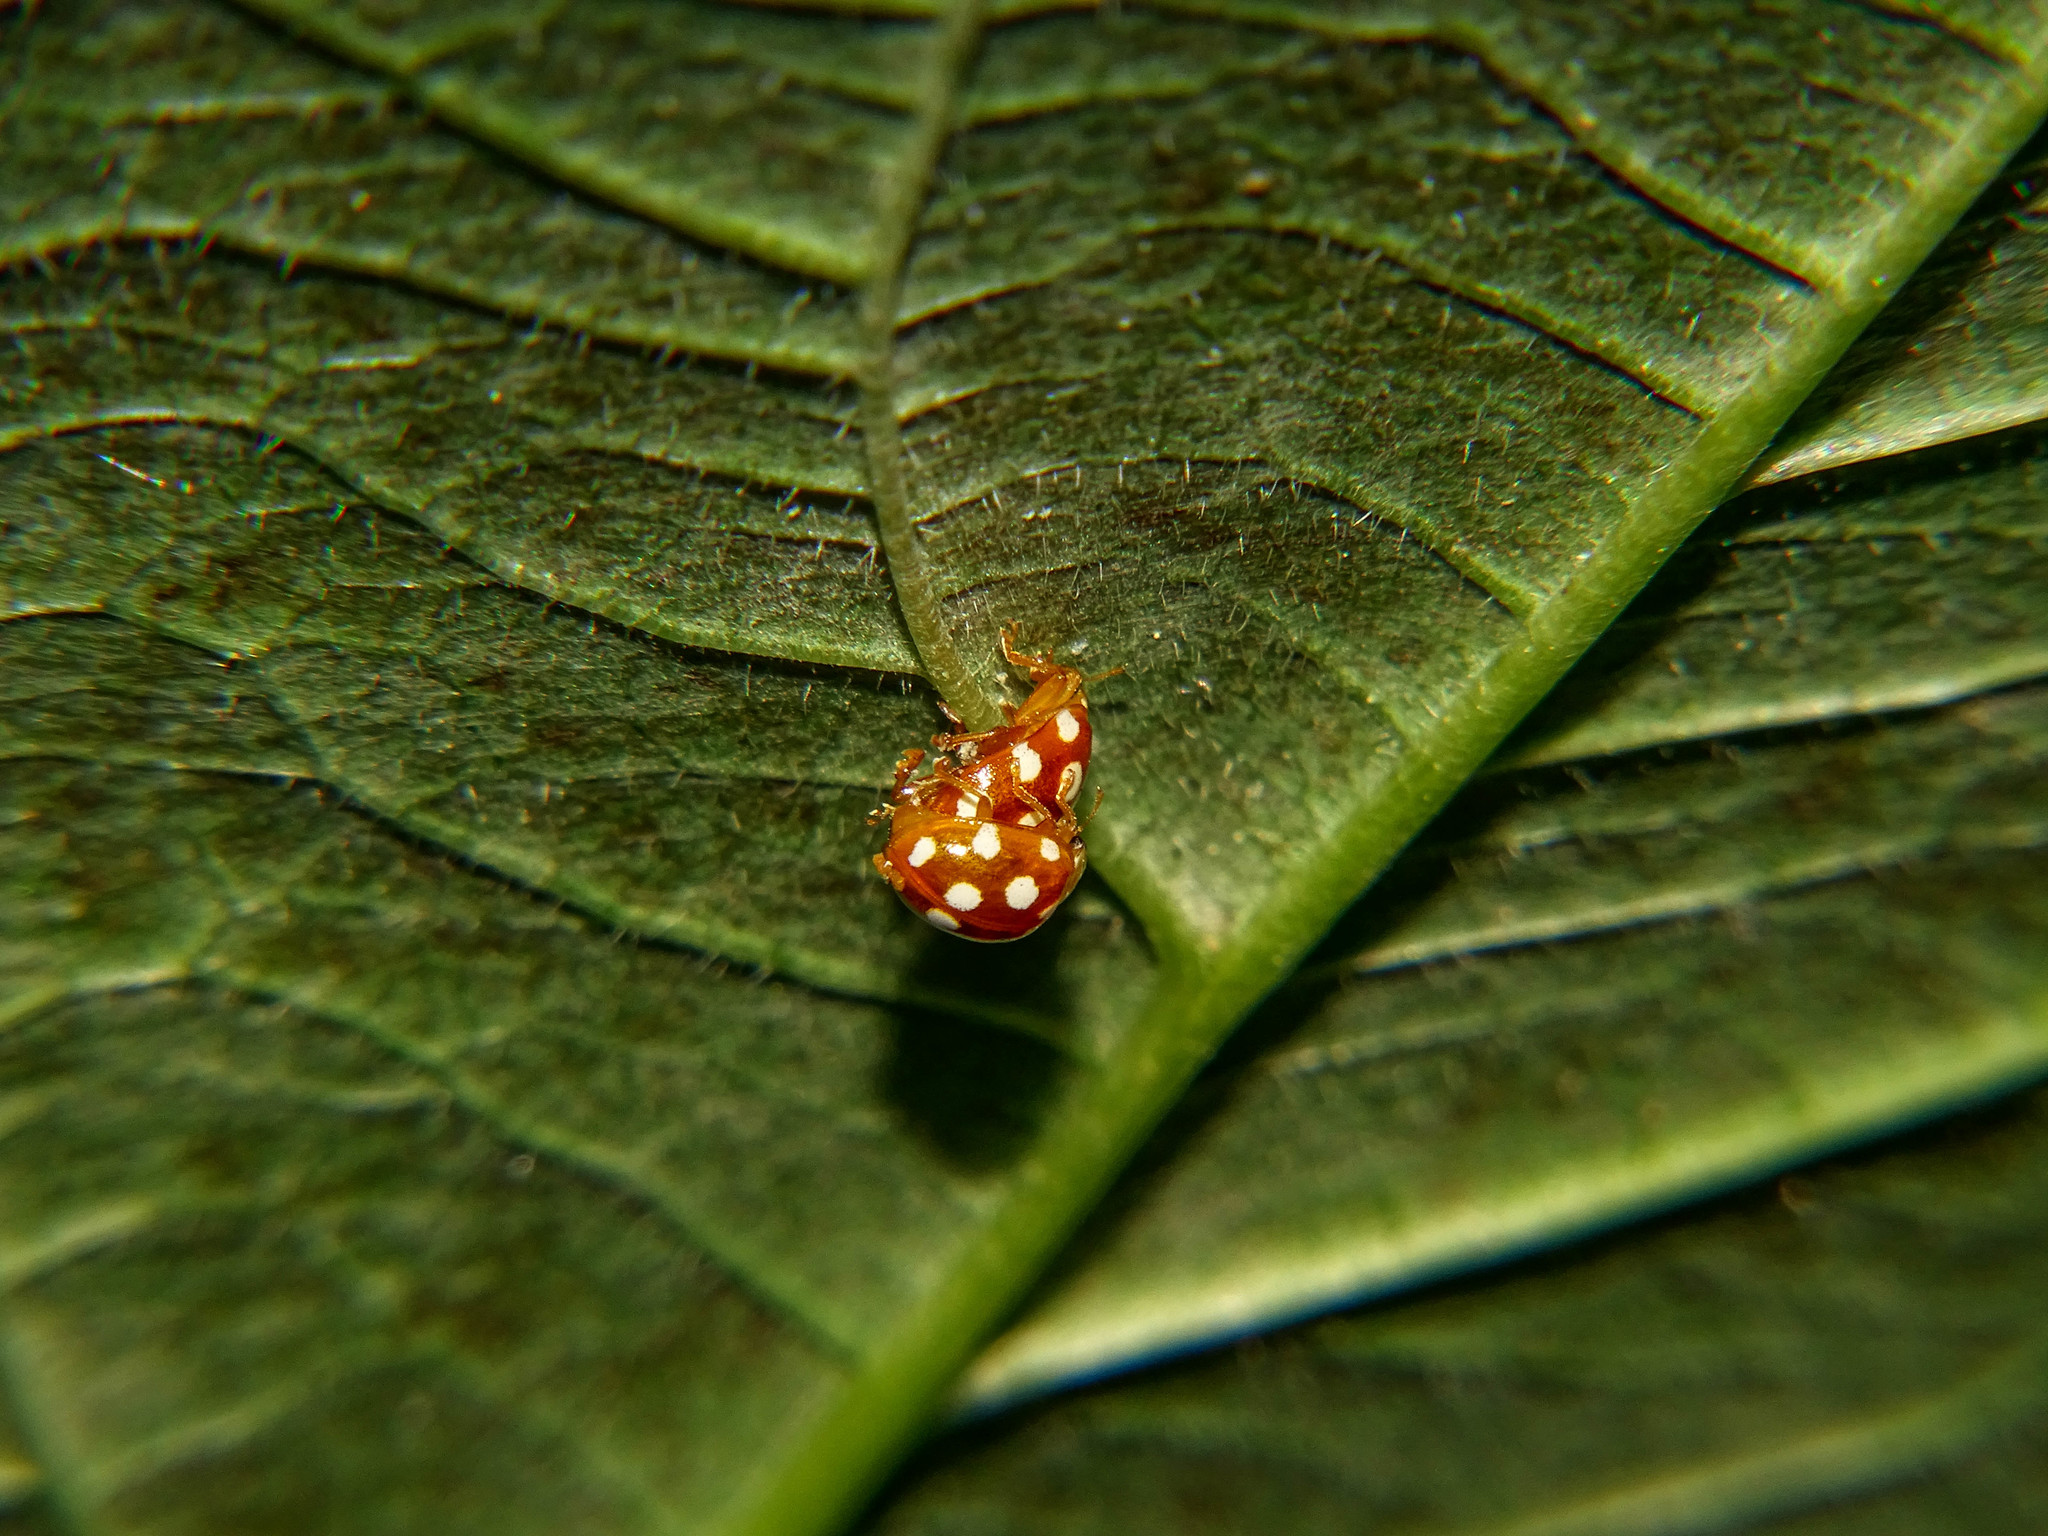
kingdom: Animalia
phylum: Arthropoda
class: Insecta
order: Coleoptera
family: Coccinellidae
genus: Vibidia
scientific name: Vibidia duodecimguttata
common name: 12-spot ladybird
